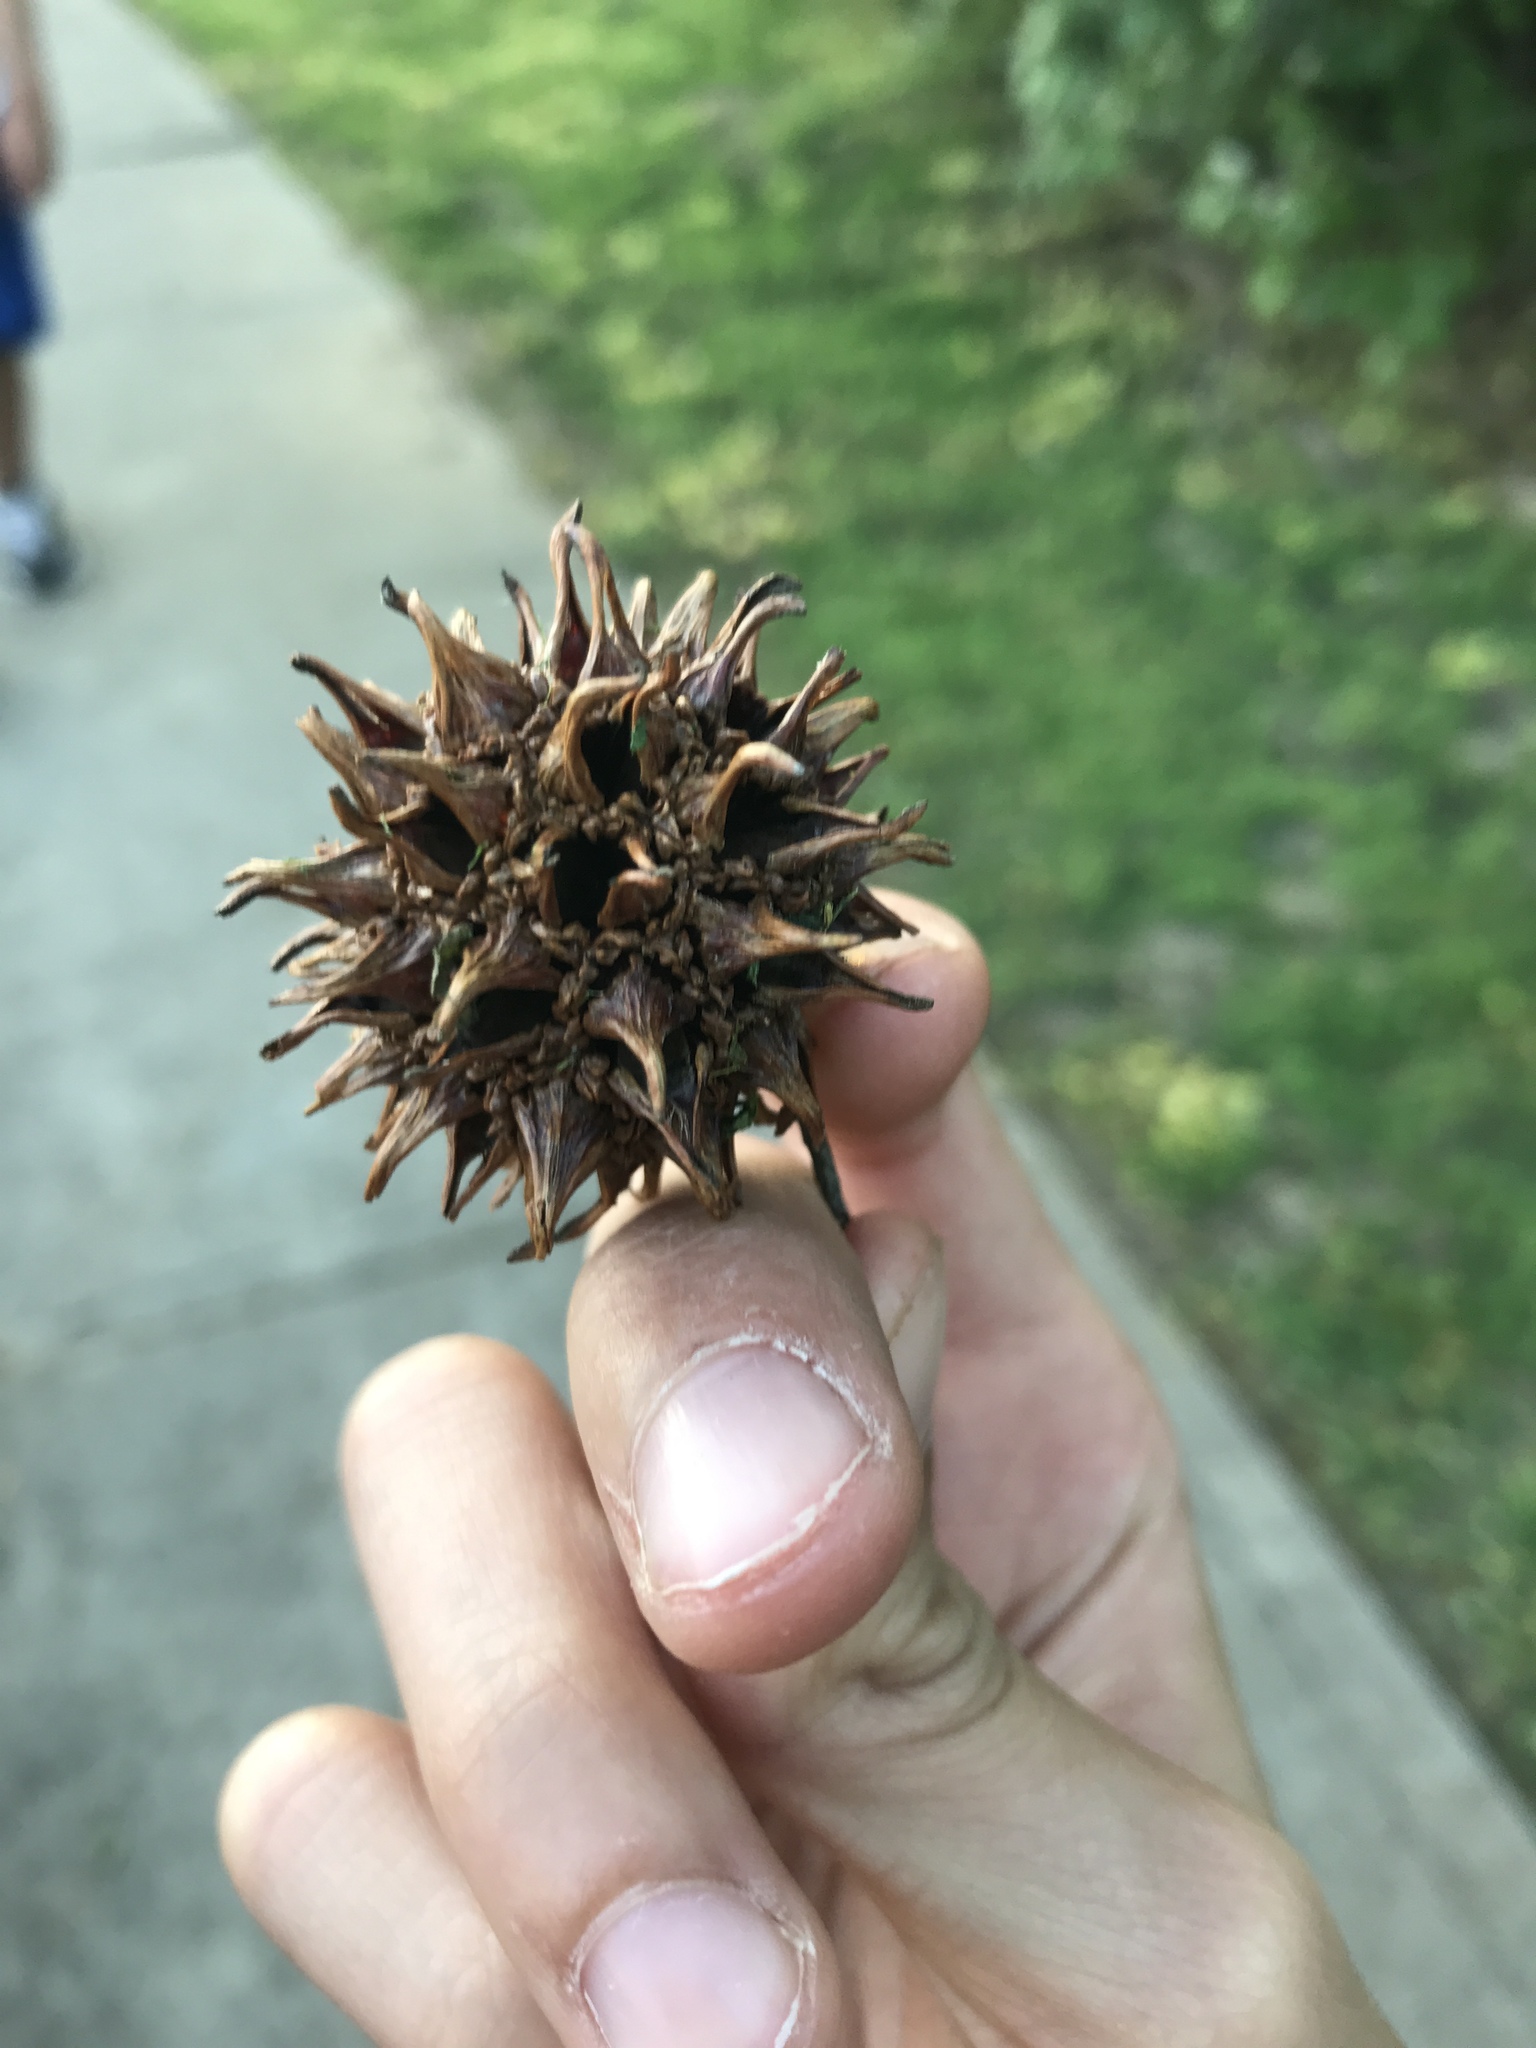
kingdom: Plantae
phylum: Tracheophyta
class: Magnoliopsida
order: Saxifragales
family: Altingiaceae
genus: Liquidambar
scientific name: Liquidambar styraciflua
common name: Sweet gum
